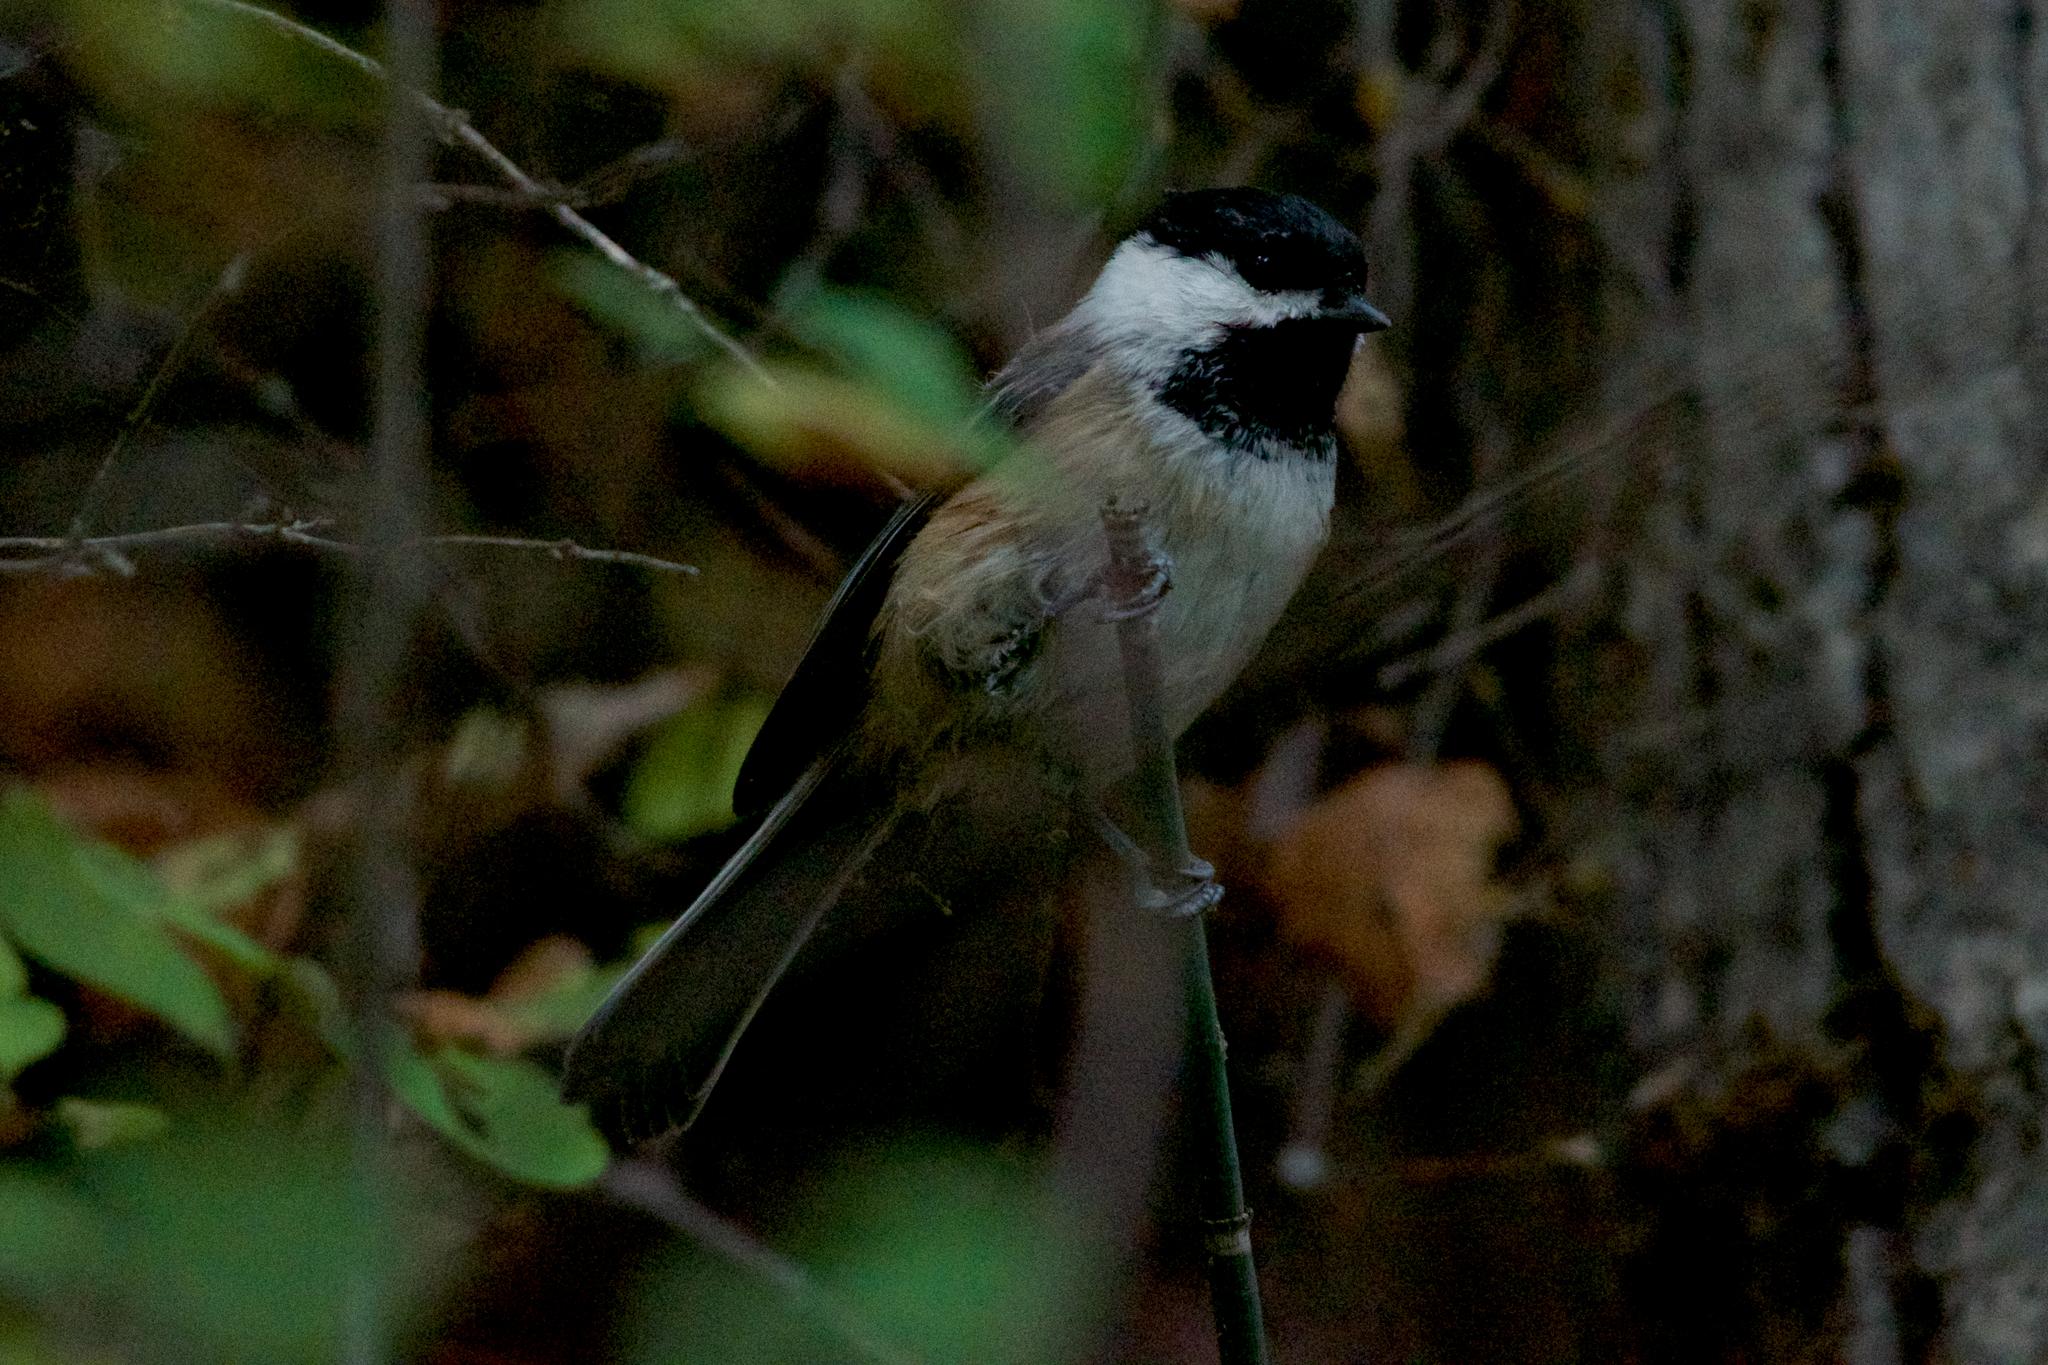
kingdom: Animalia
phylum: Chordata
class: Aves
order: Passeriformes
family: Paridae
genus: Poecile
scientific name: Poecile atricapillus
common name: Black-capped chickadee
